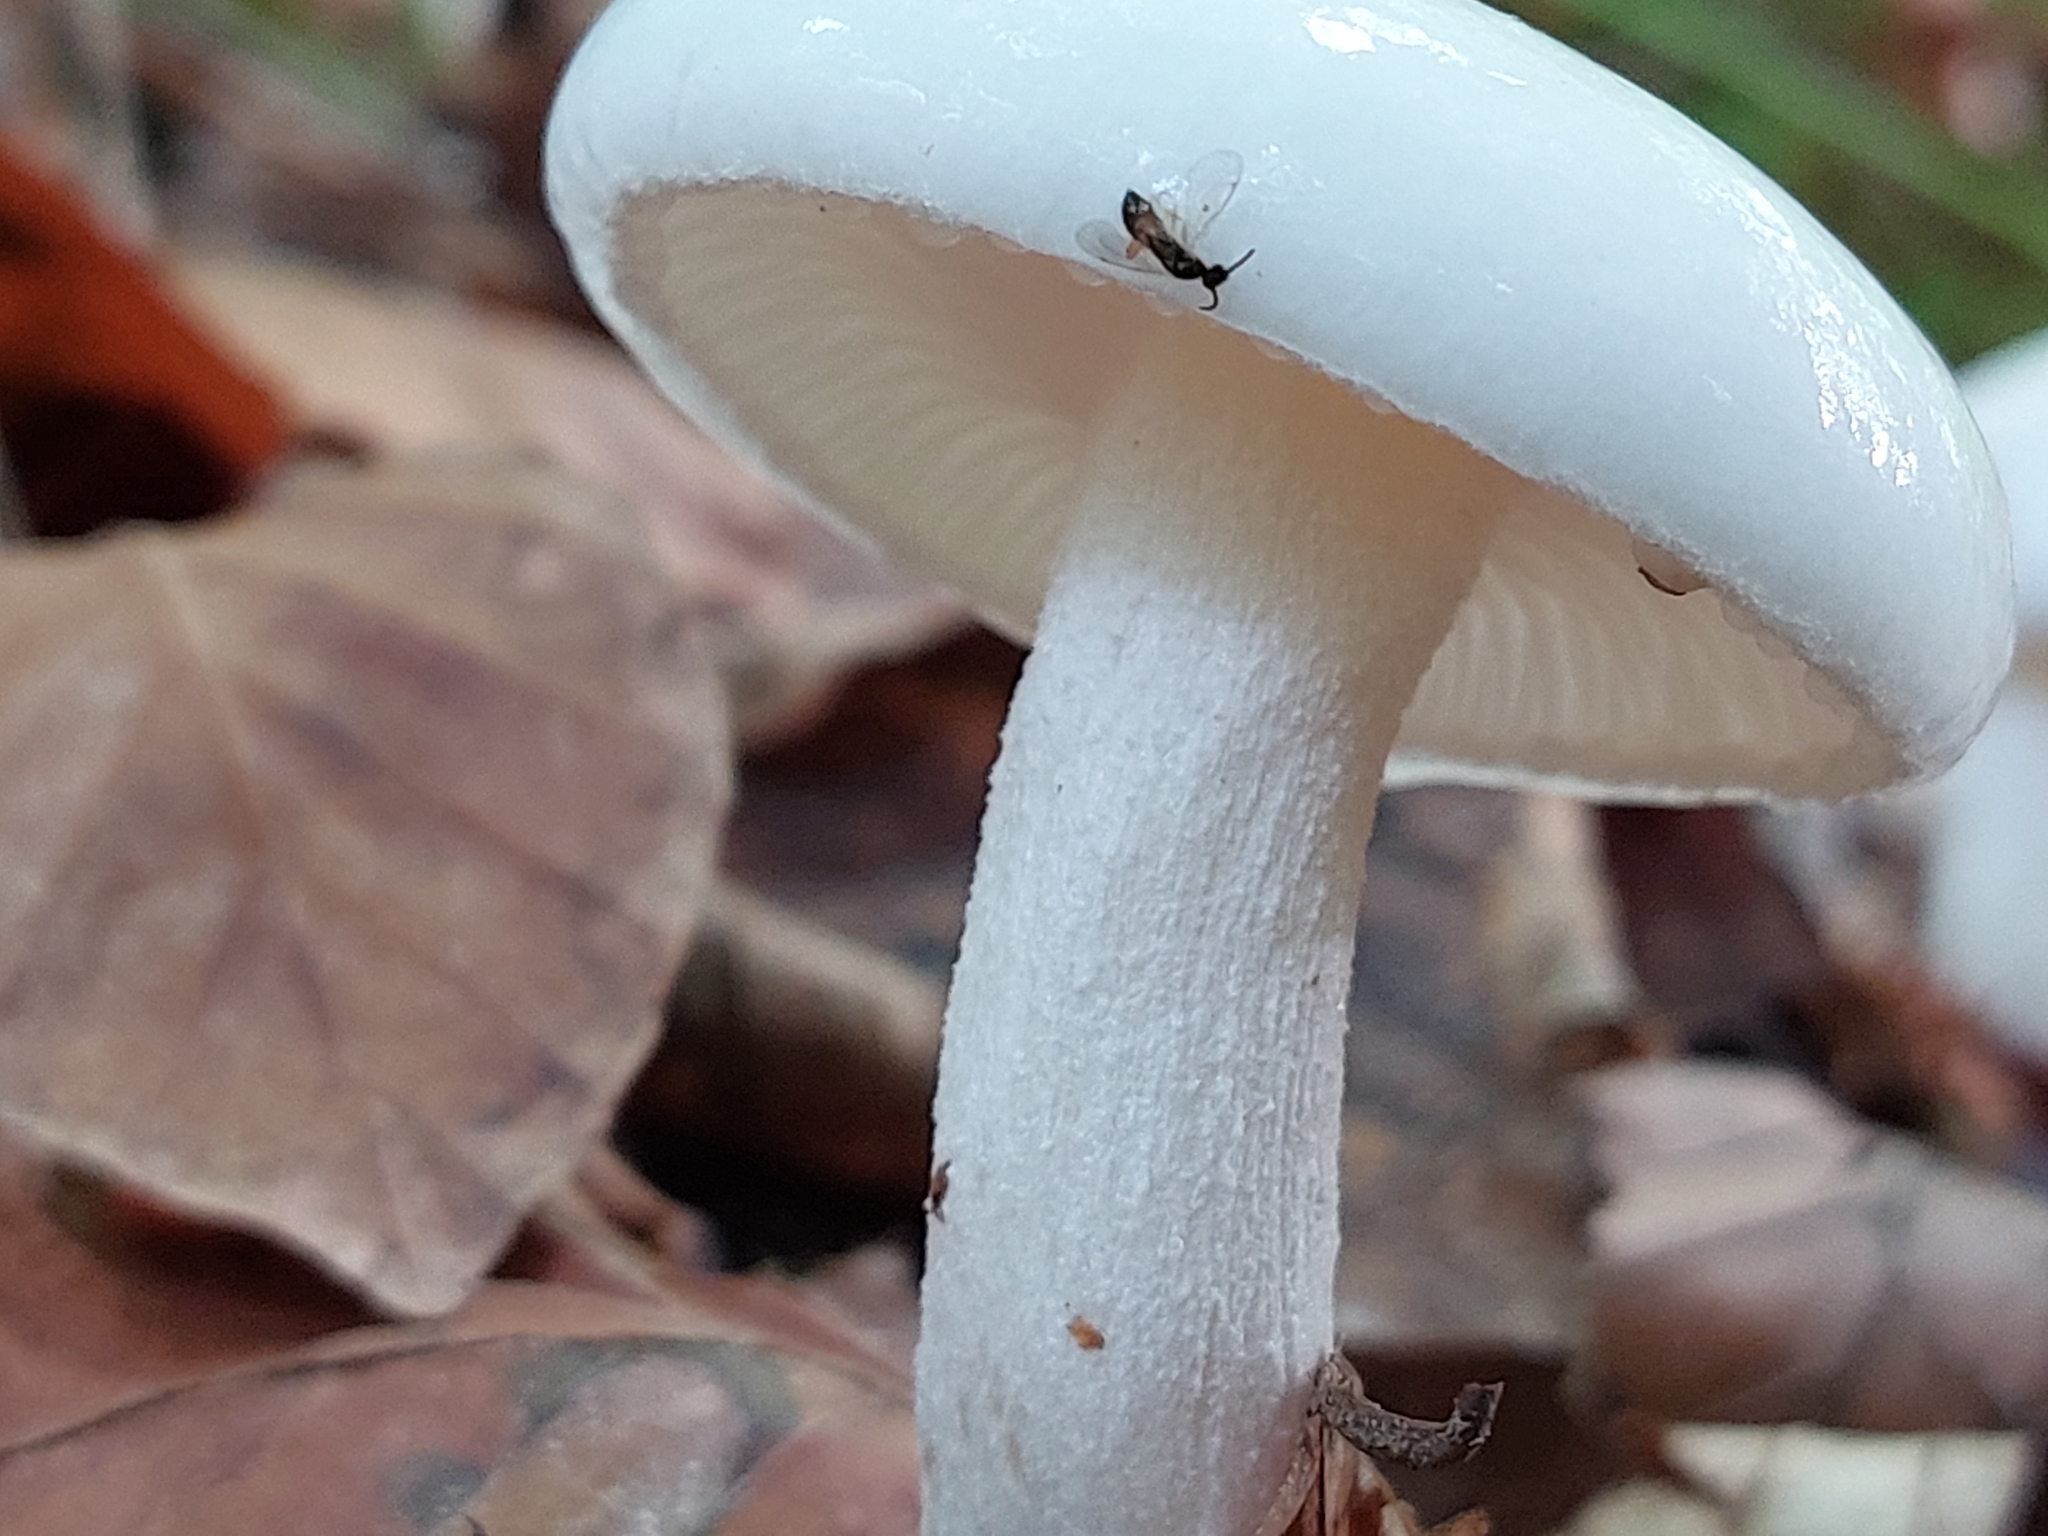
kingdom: Fungi
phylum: Basidiomycota
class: Agaricomycetes
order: Agaricales
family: Hygrophoraceae
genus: Hygrophorus
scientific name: Hygrophorus eburneus
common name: Ivory wax-cap
